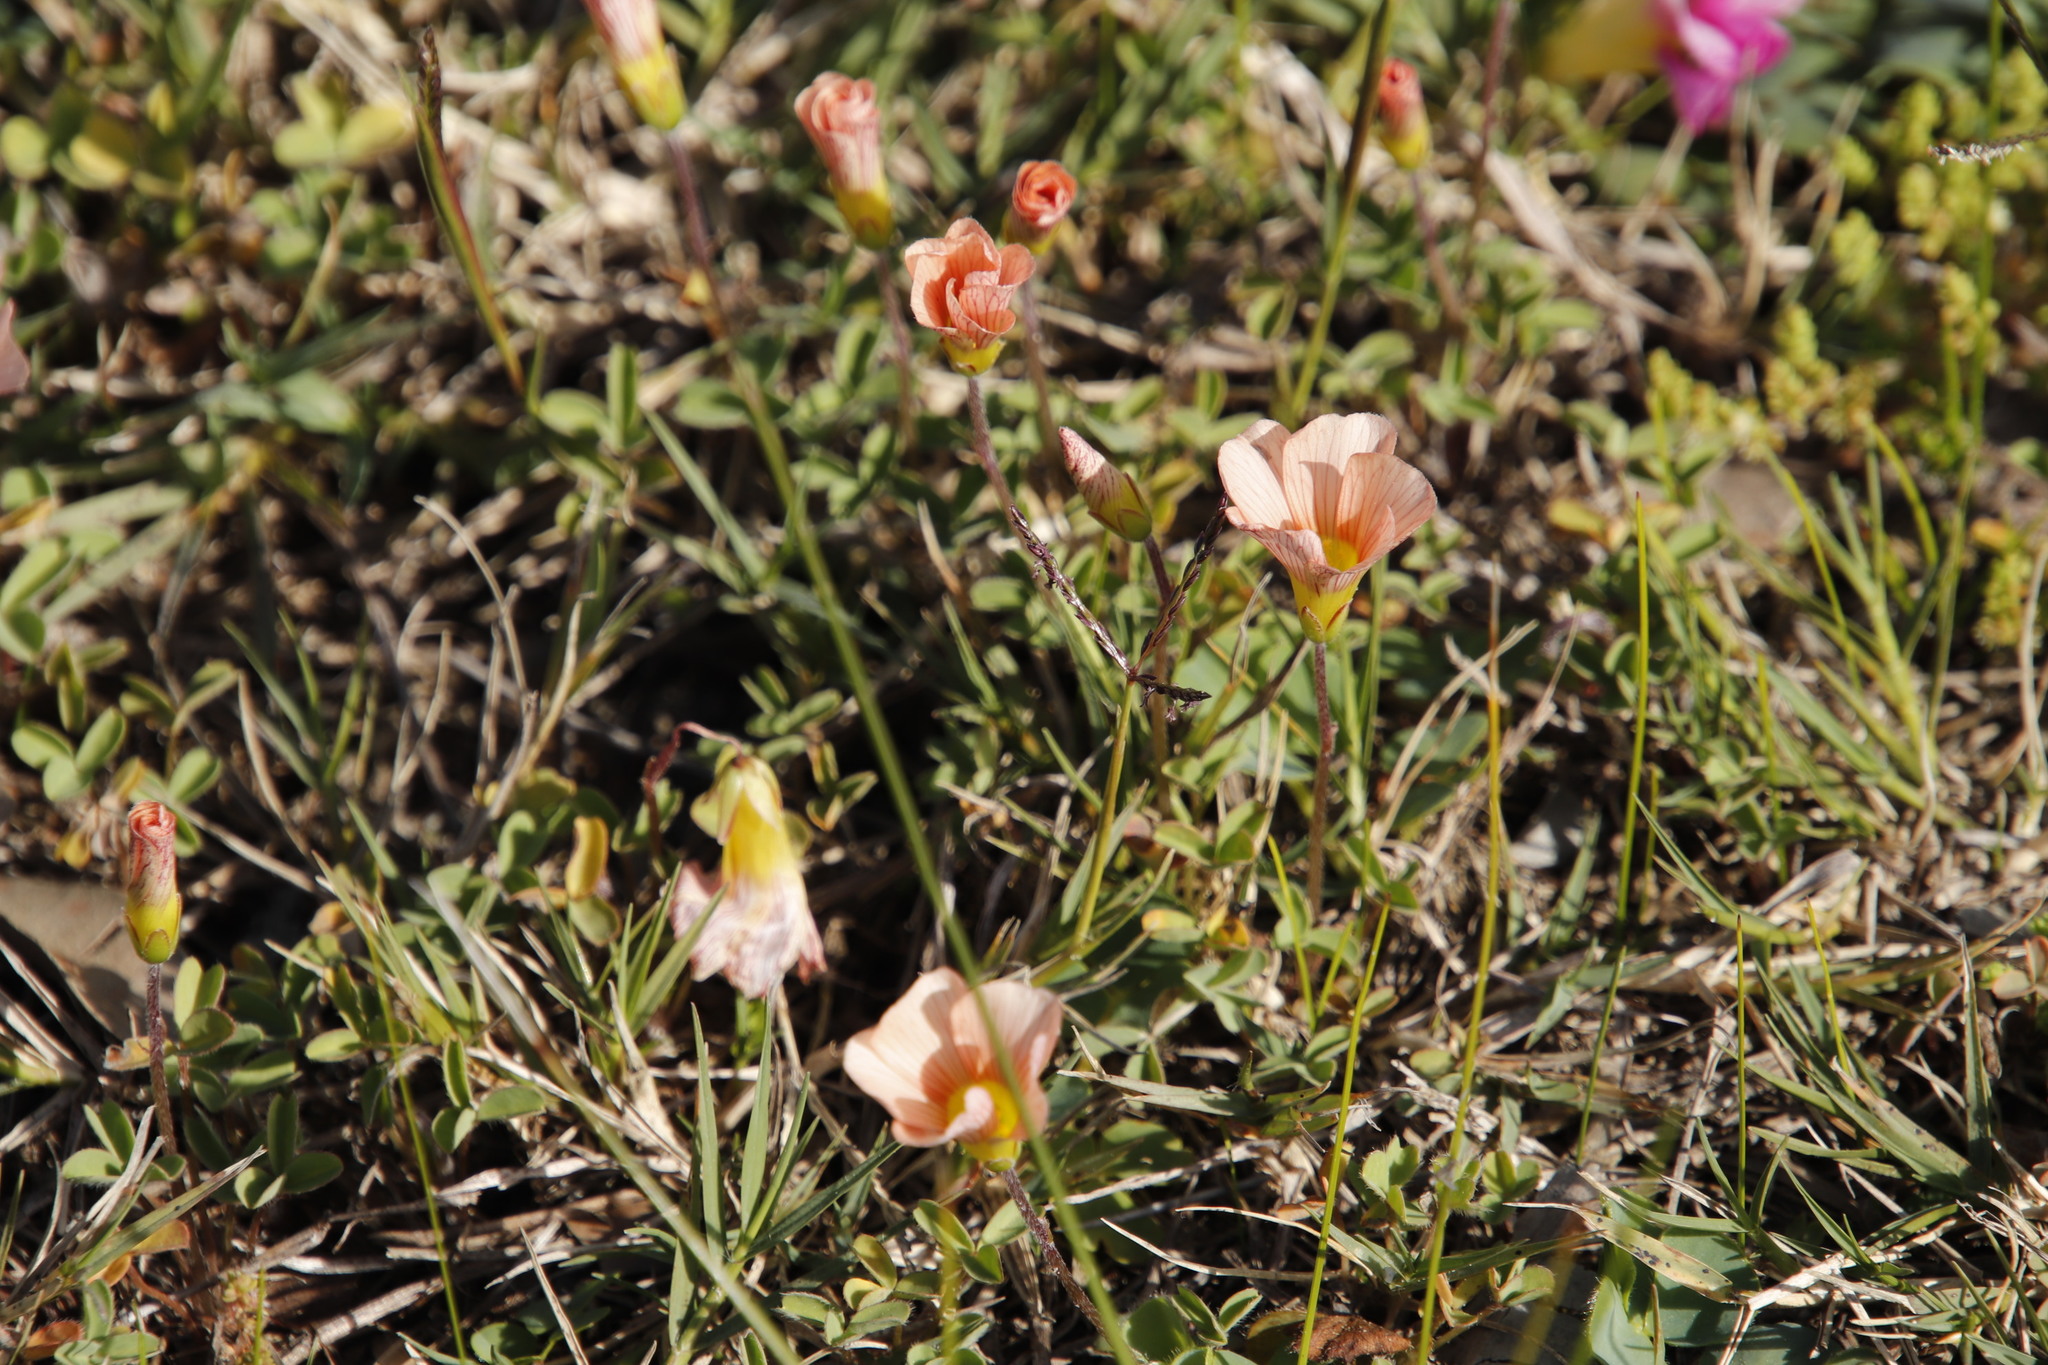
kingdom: Plantae
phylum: Tracheophyta
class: Magnoliopsida
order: Oxalidales
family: Oxalidaceae
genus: Oxalis
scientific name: Oxalis obtusa
